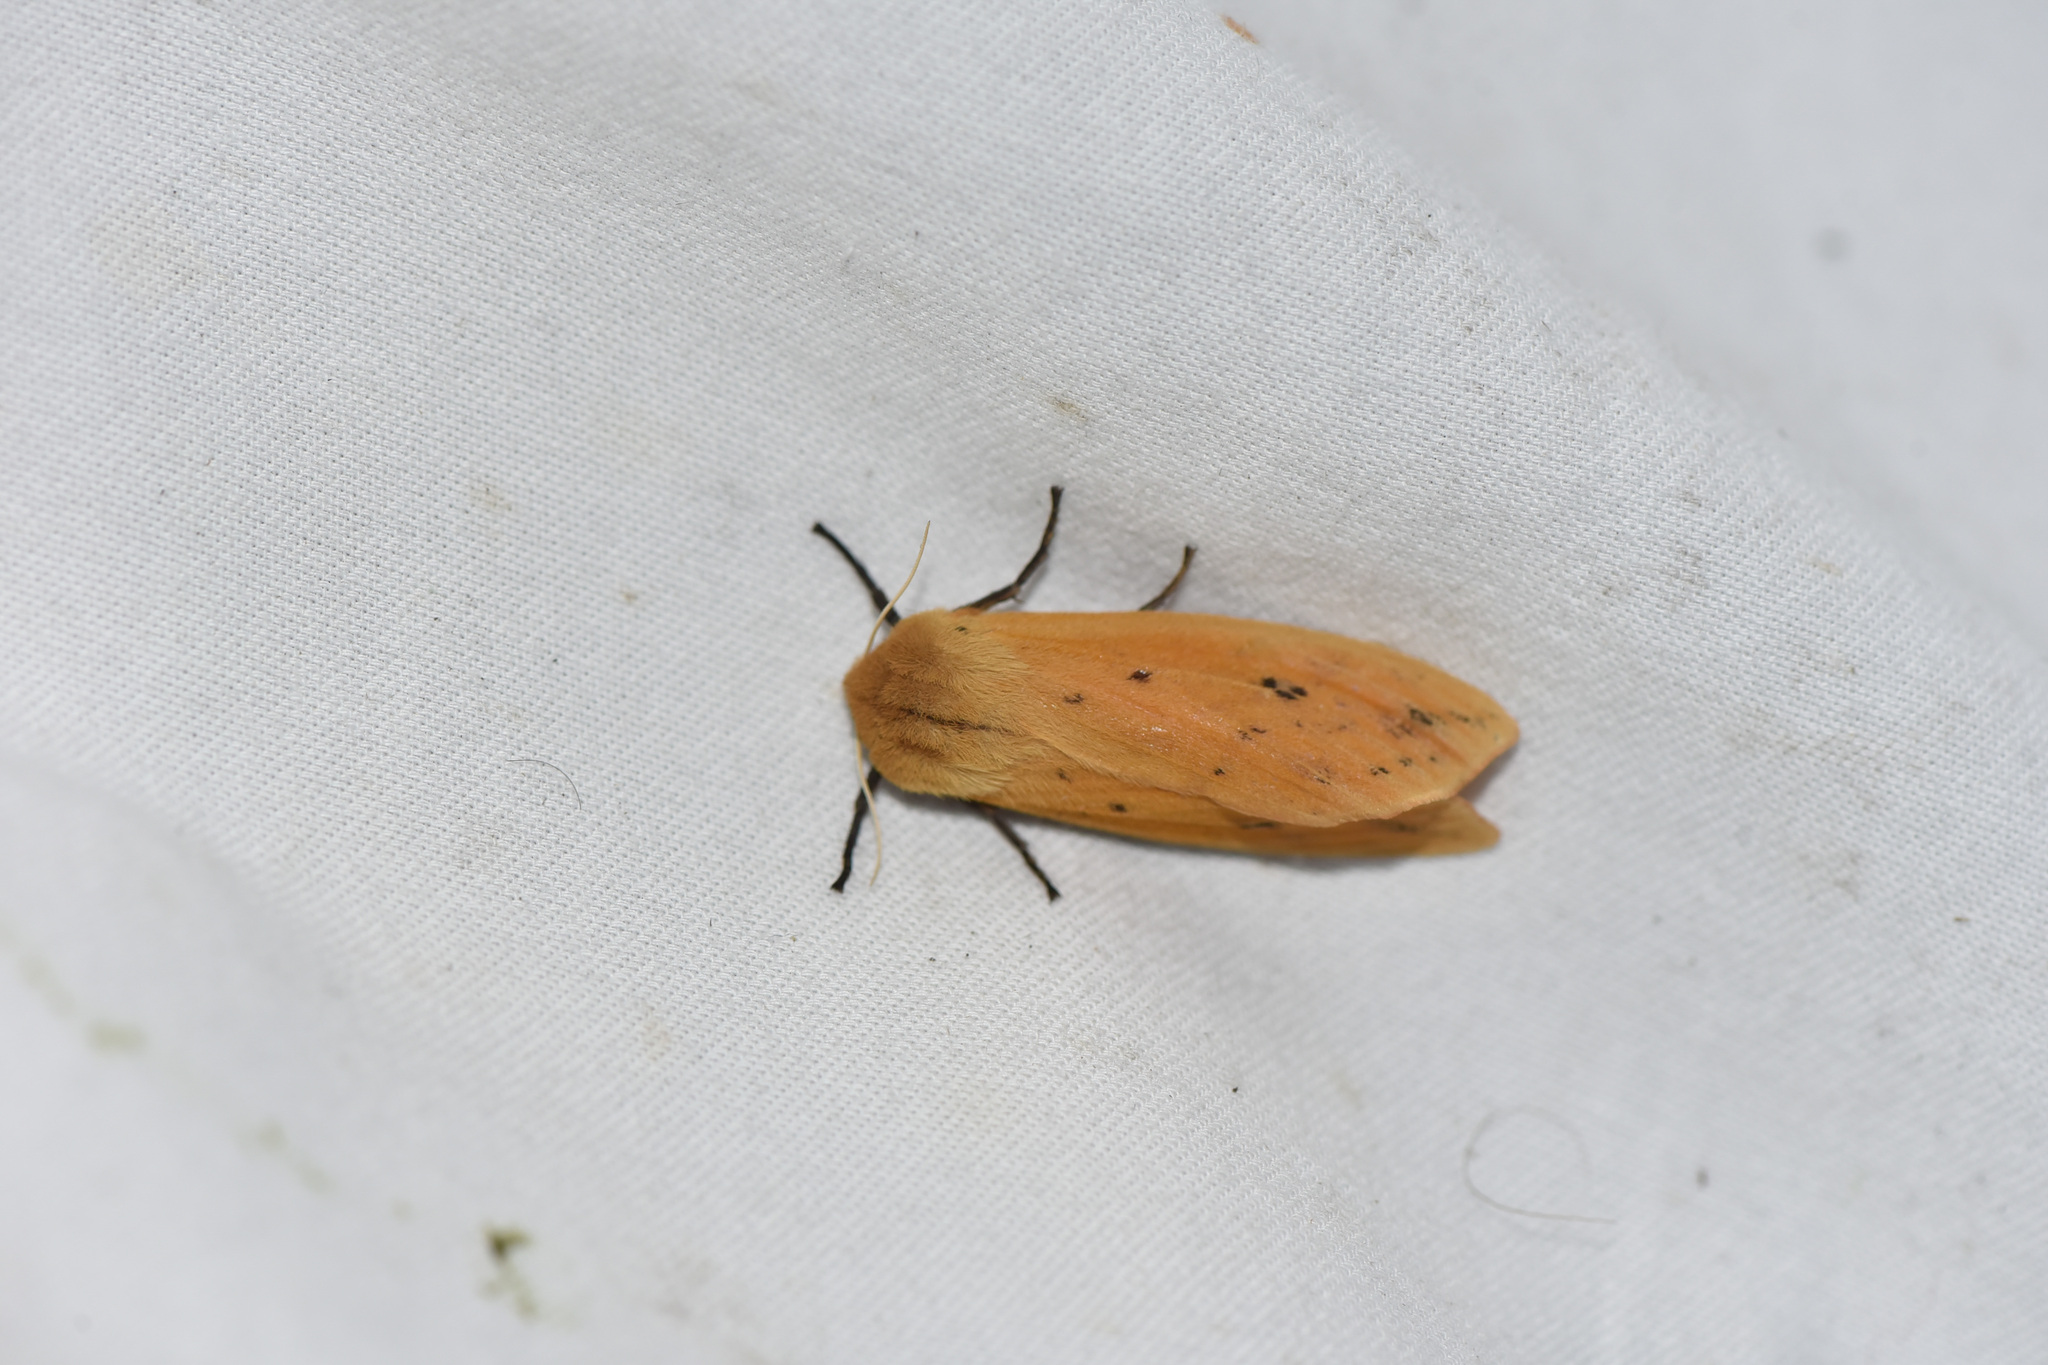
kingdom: Animalia
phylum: Arthropoda
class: Insecta
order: Lepidoptera
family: Erebidae
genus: Pyrrharctia
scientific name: Pyrrharctia isabella
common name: Isabella tiger moth
